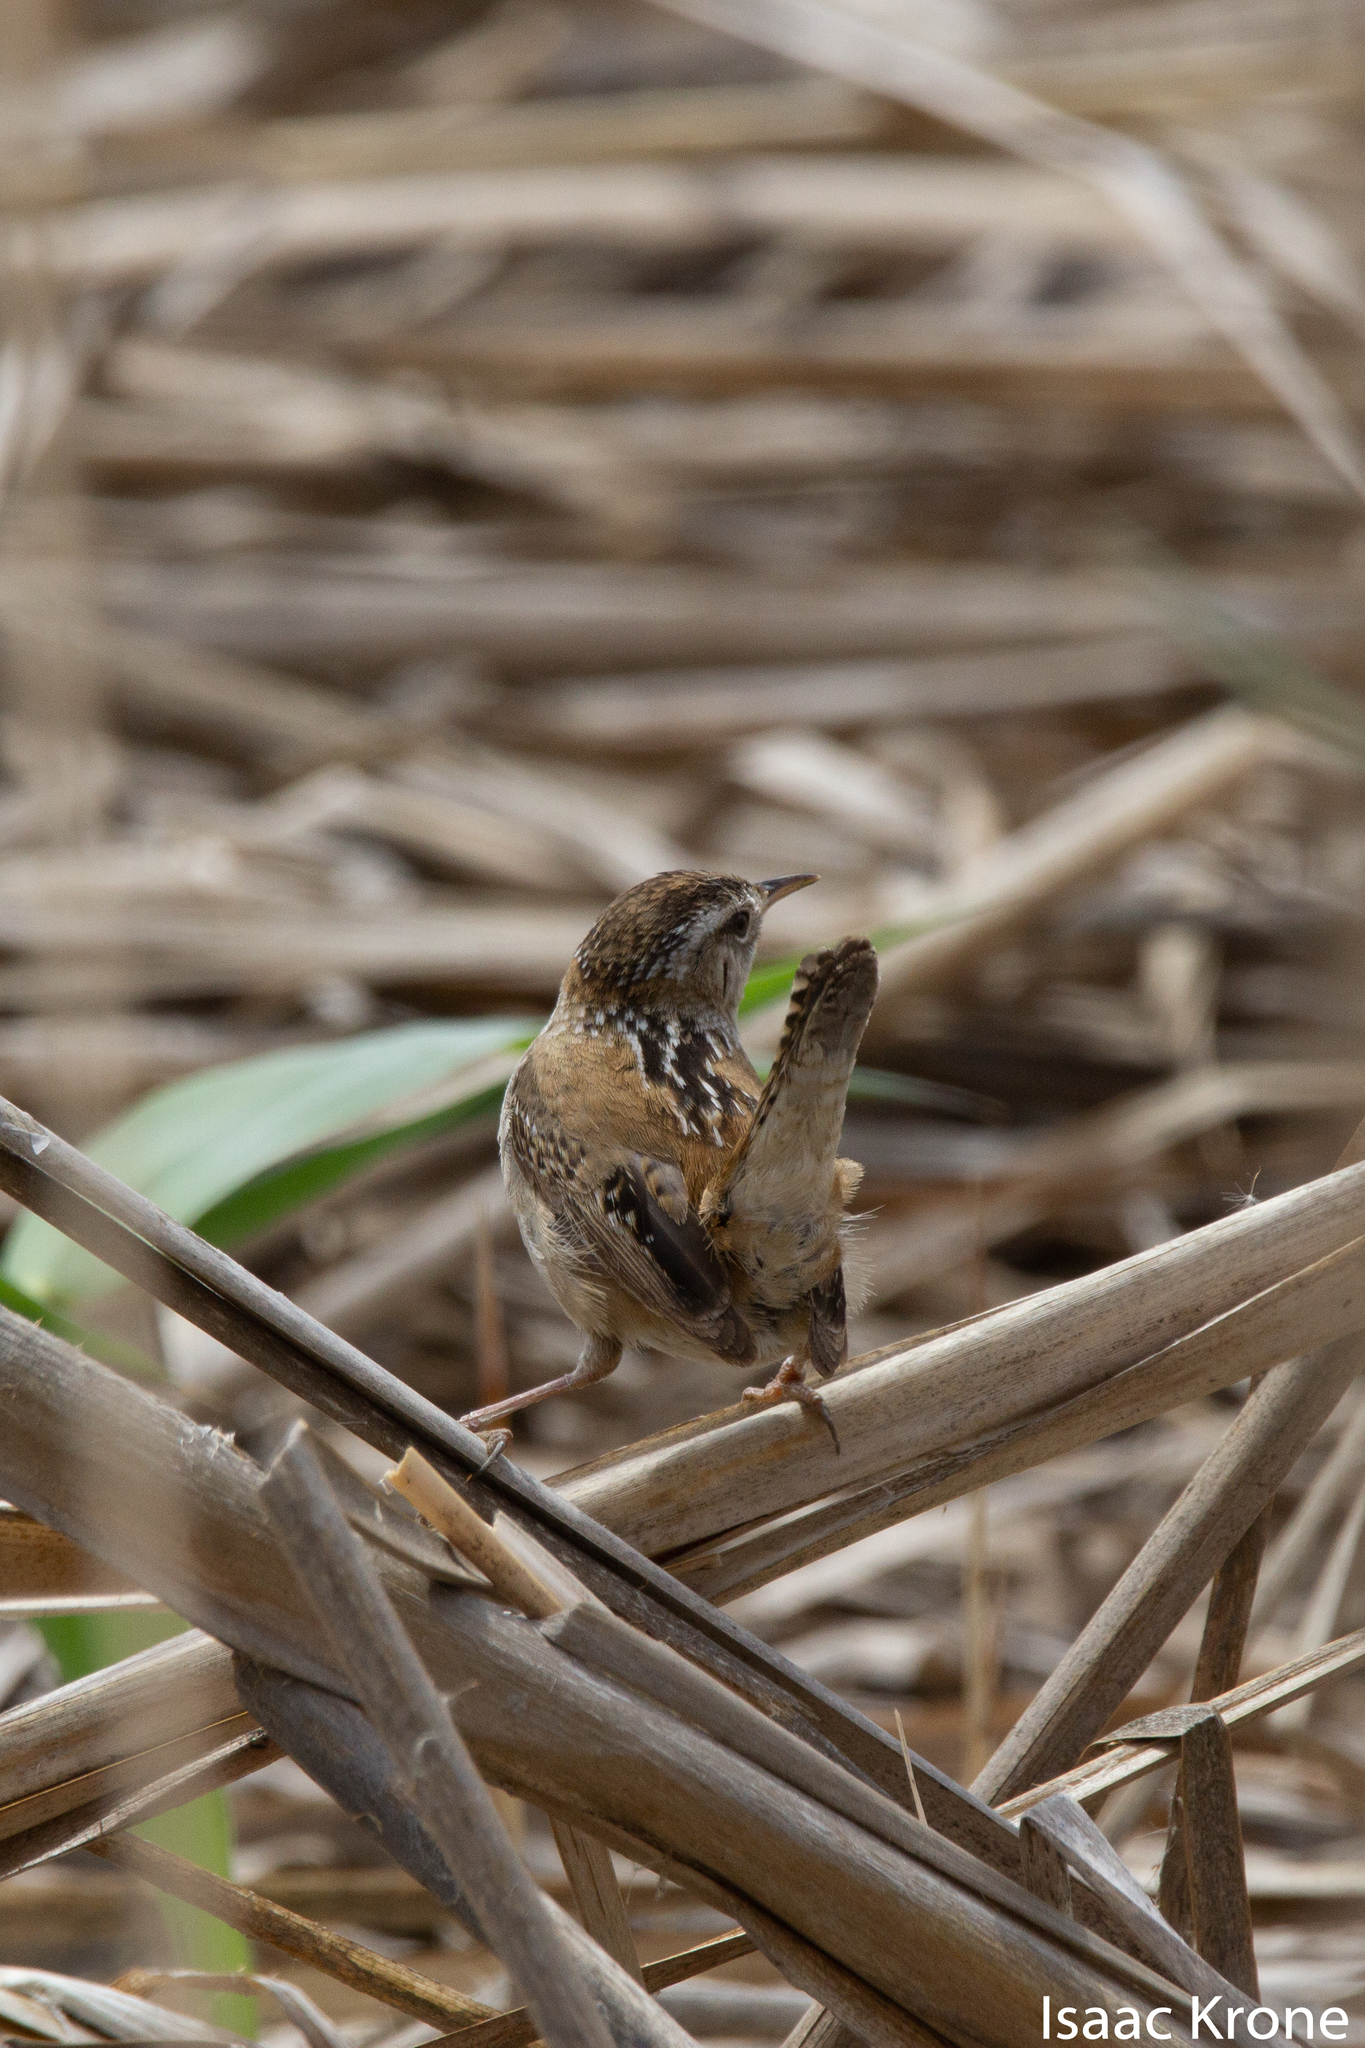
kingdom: Animalia
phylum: Chordata
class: Aves
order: Passeriformes
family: Troglodytidae
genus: Cistothorus
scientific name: Cistothorus palustris
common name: Marsh wren
